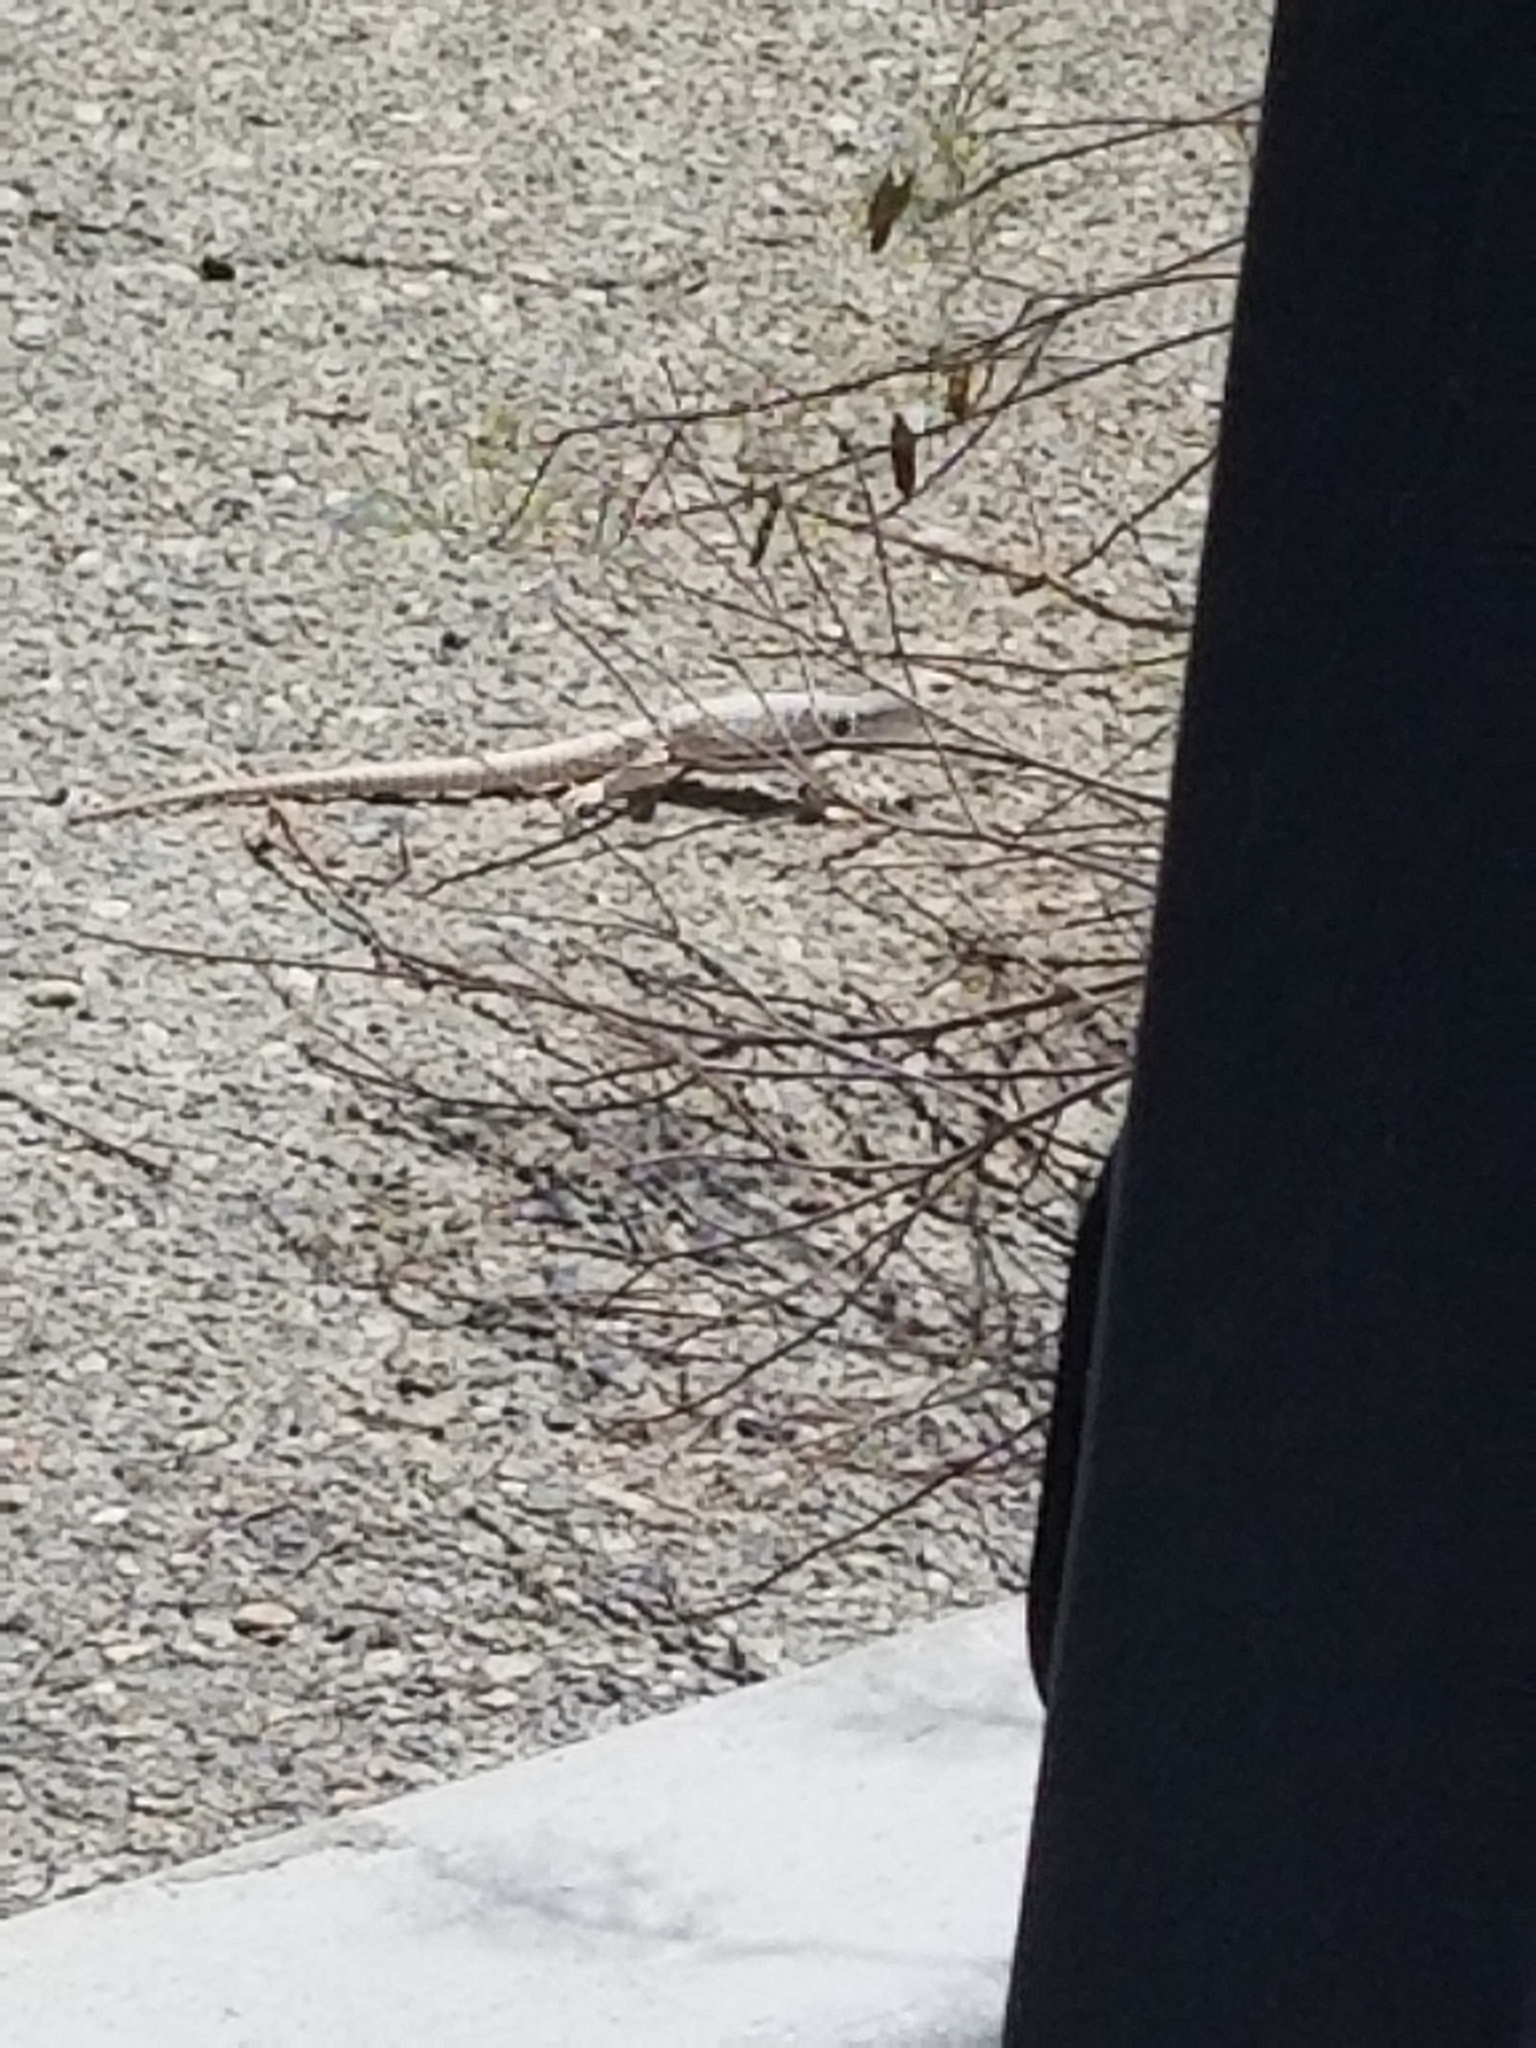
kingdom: Animalia
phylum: Chordata
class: Squamata
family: Iguanidae
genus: Dipsosaurus
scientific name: Dipsosaurus dorsalis
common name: Desert iguana
